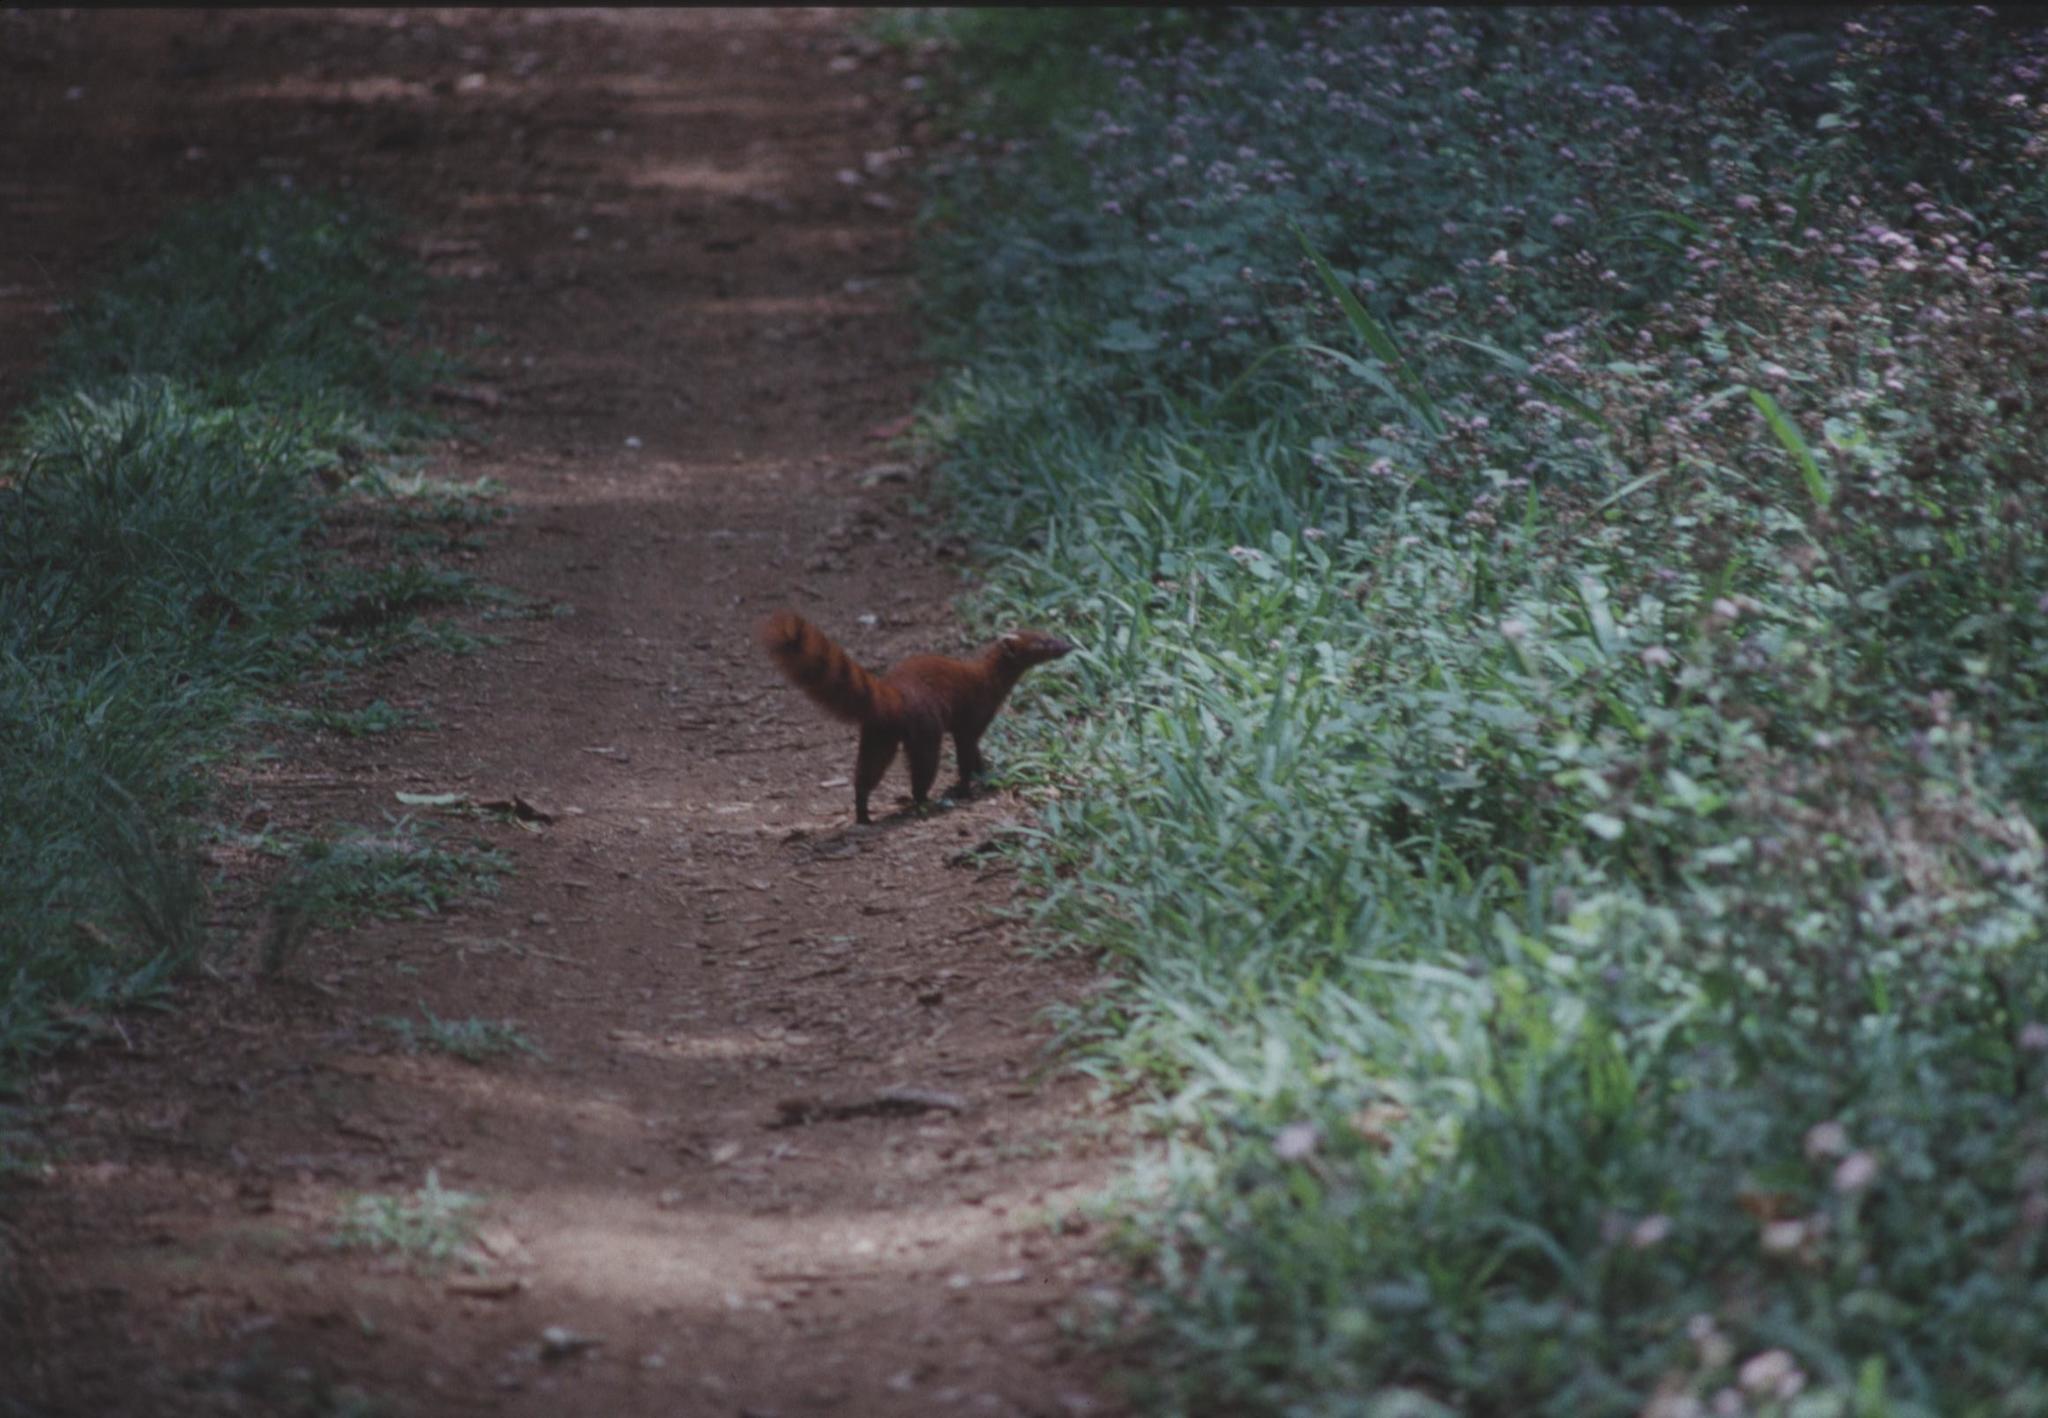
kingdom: Animalia
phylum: Chordata
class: Mammalia
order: Carnivora
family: Eupleridae
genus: Galidia
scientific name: Galidia elegans
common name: Ring-tailed mongoose
